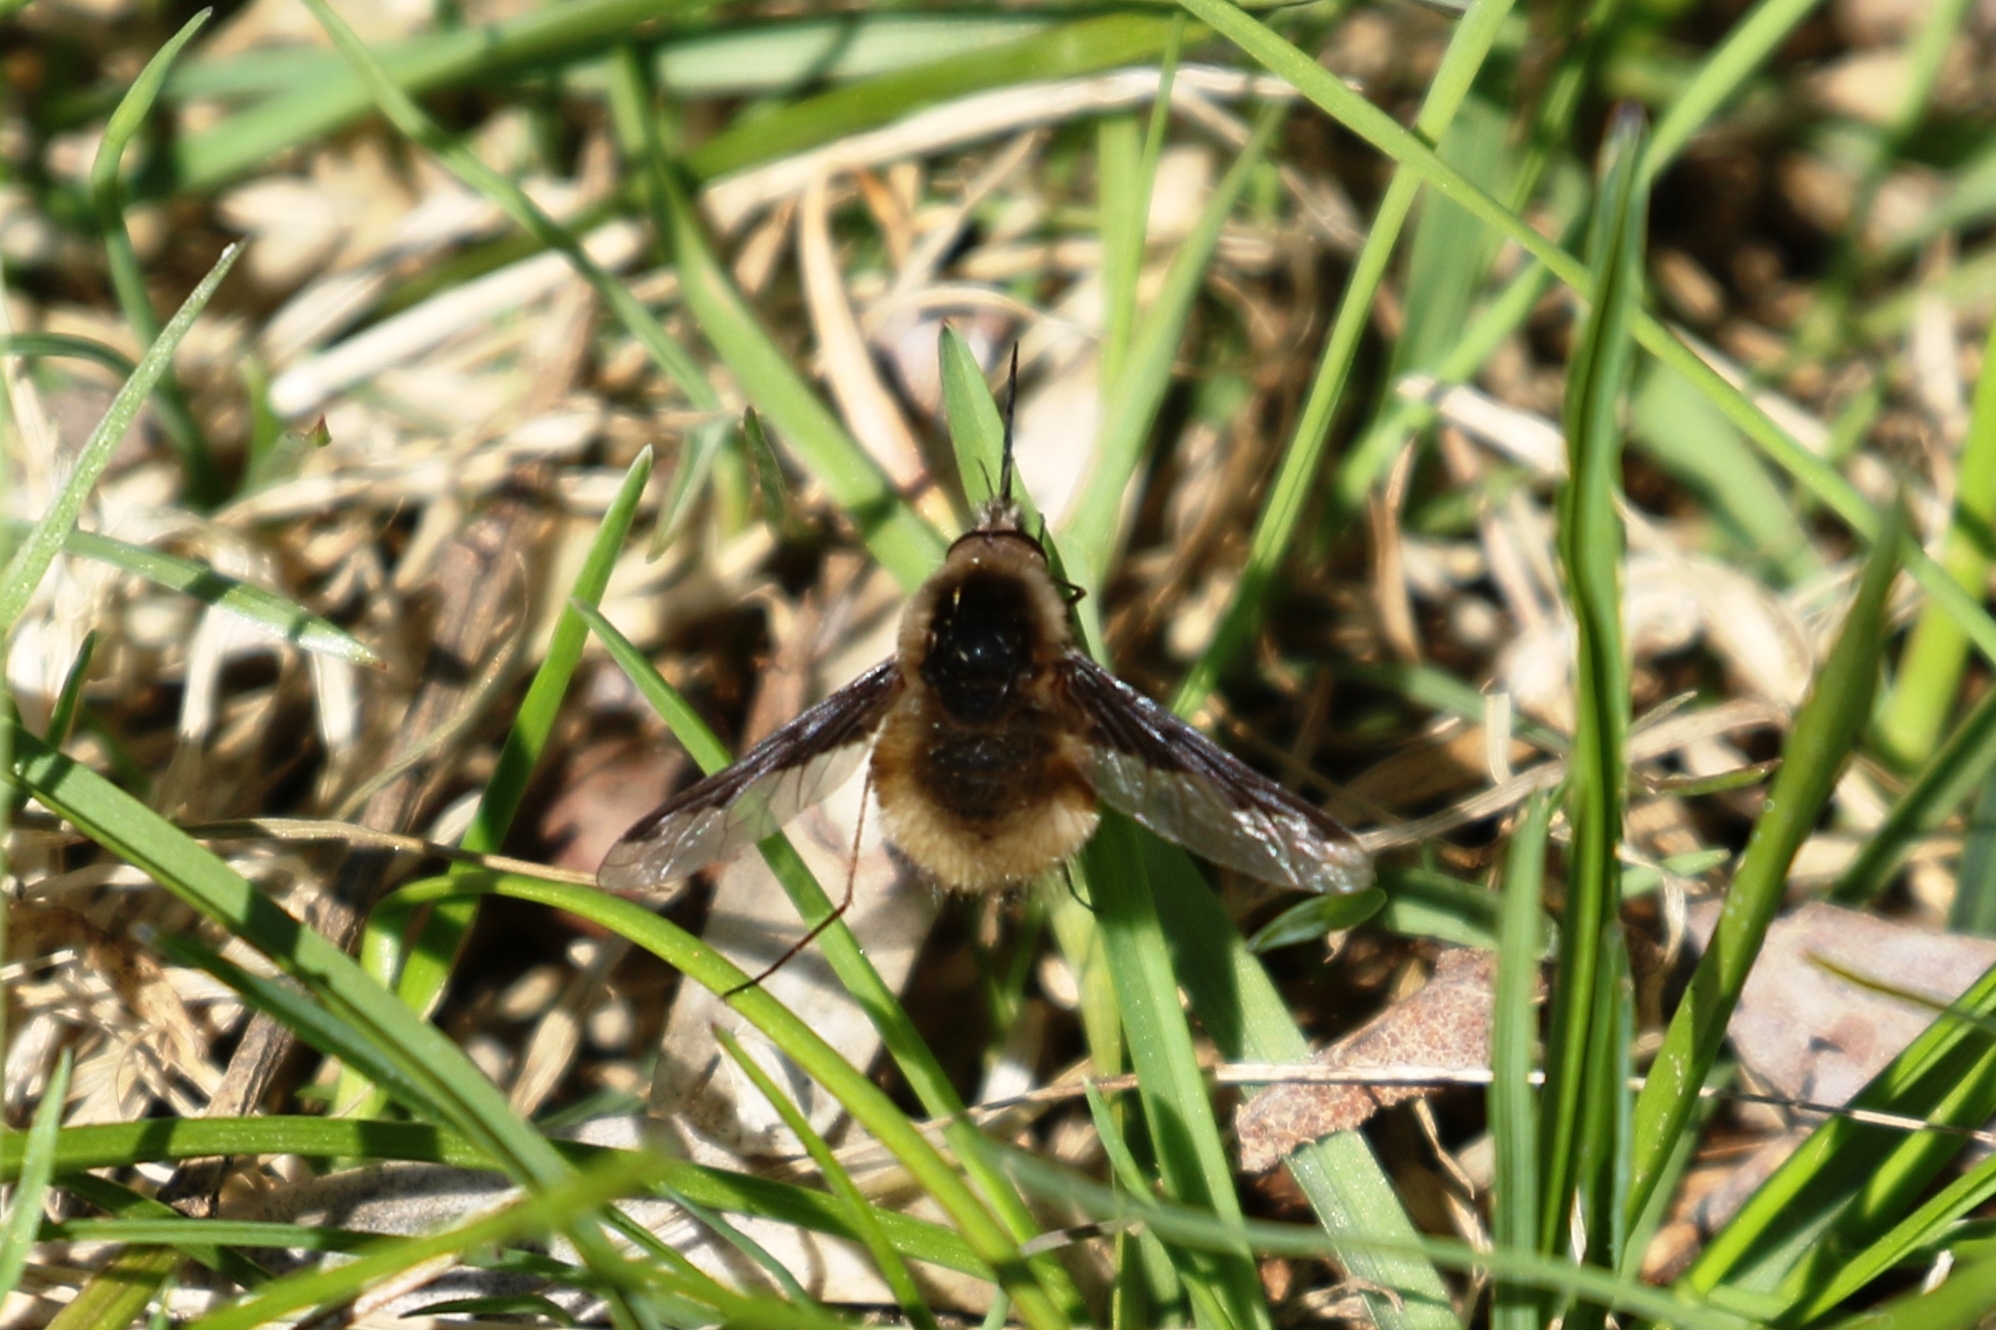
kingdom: Animalia
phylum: Arthropoda
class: Insecta
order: Diptera
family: Bombyliidae
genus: Bombylius
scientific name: Bombylius major
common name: Bee fly
